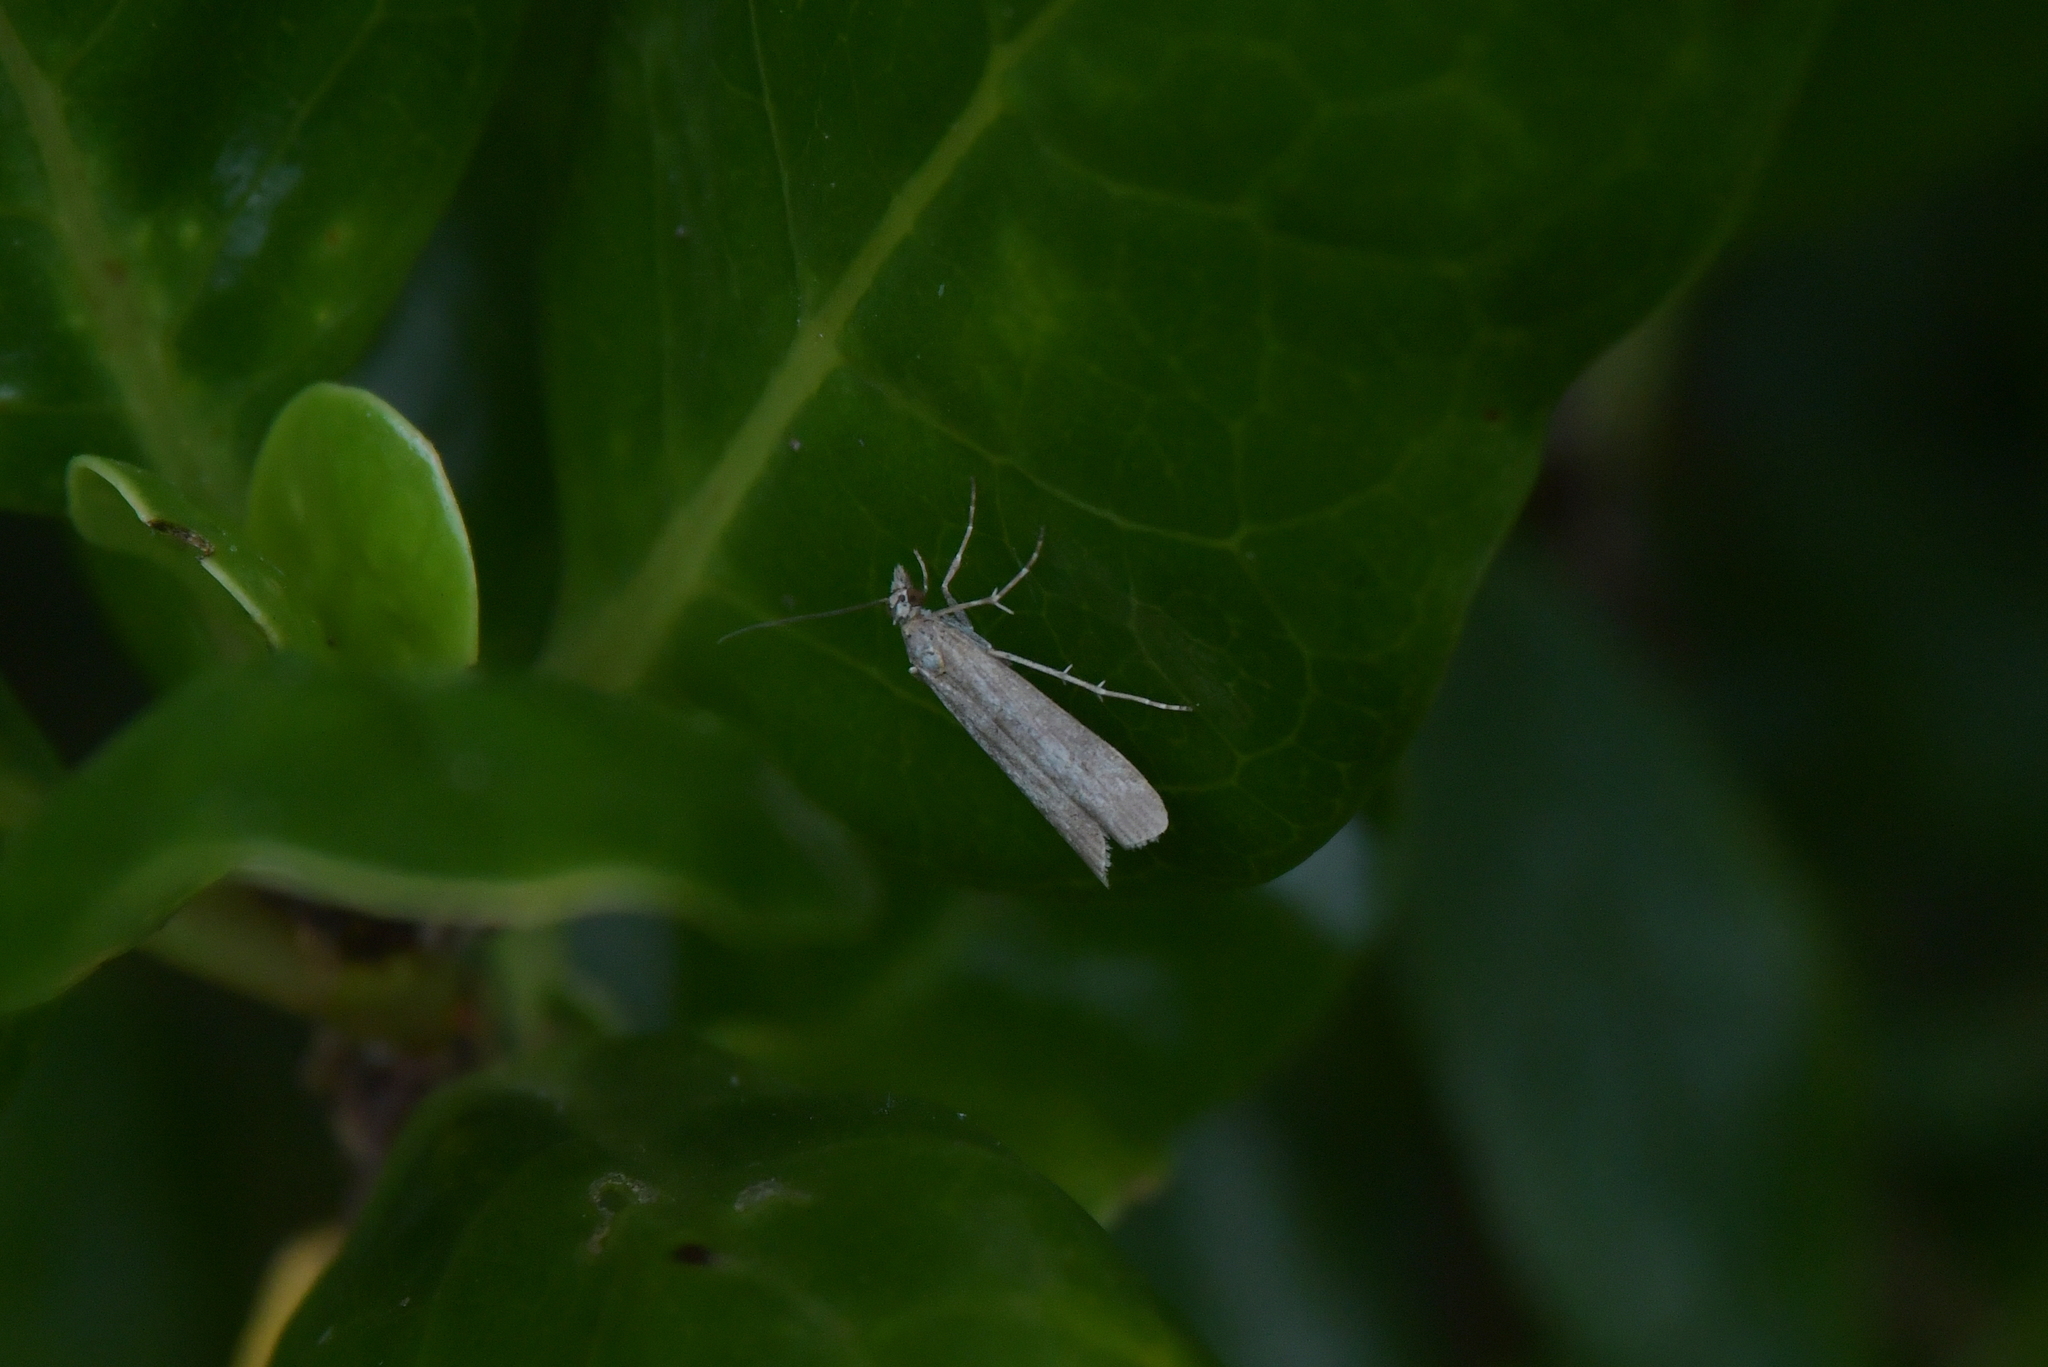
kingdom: Animalia
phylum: Arthropoda
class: Insecta
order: Lepidoptera
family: Crambidae
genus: Eudonia
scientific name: Eudonia leptalea
